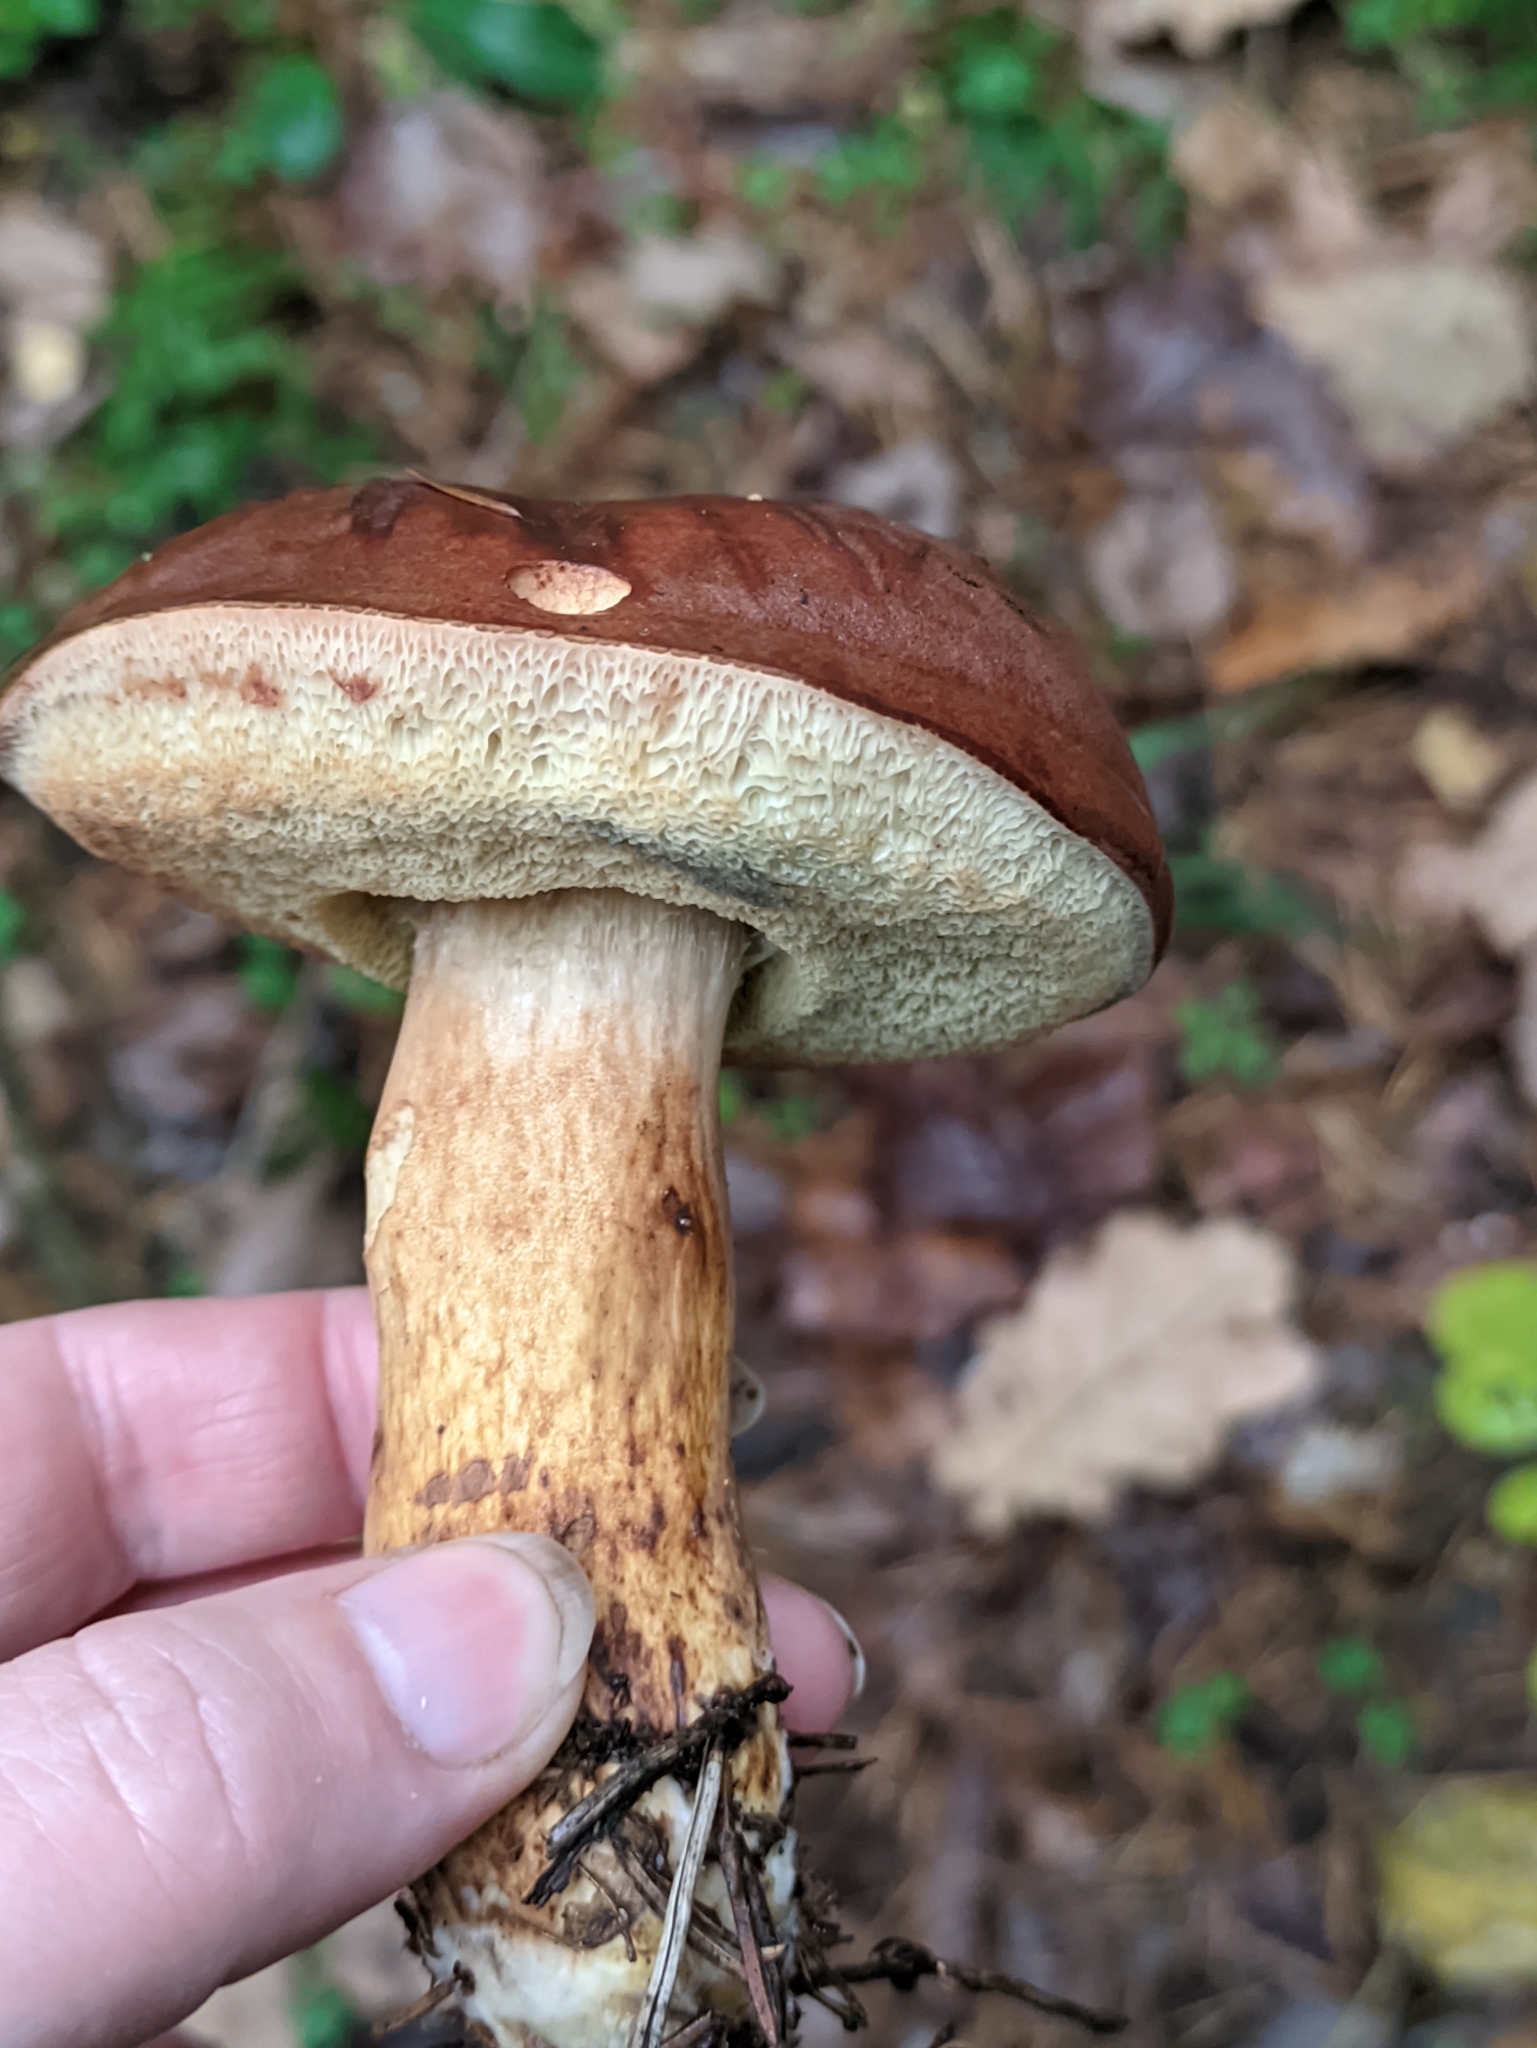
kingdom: Fungi
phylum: Basidiomycota
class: Agaricomycetes
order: Boletales
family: Boletaceae
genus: Imleria
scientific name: Imleria badia
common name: Bay bolete
